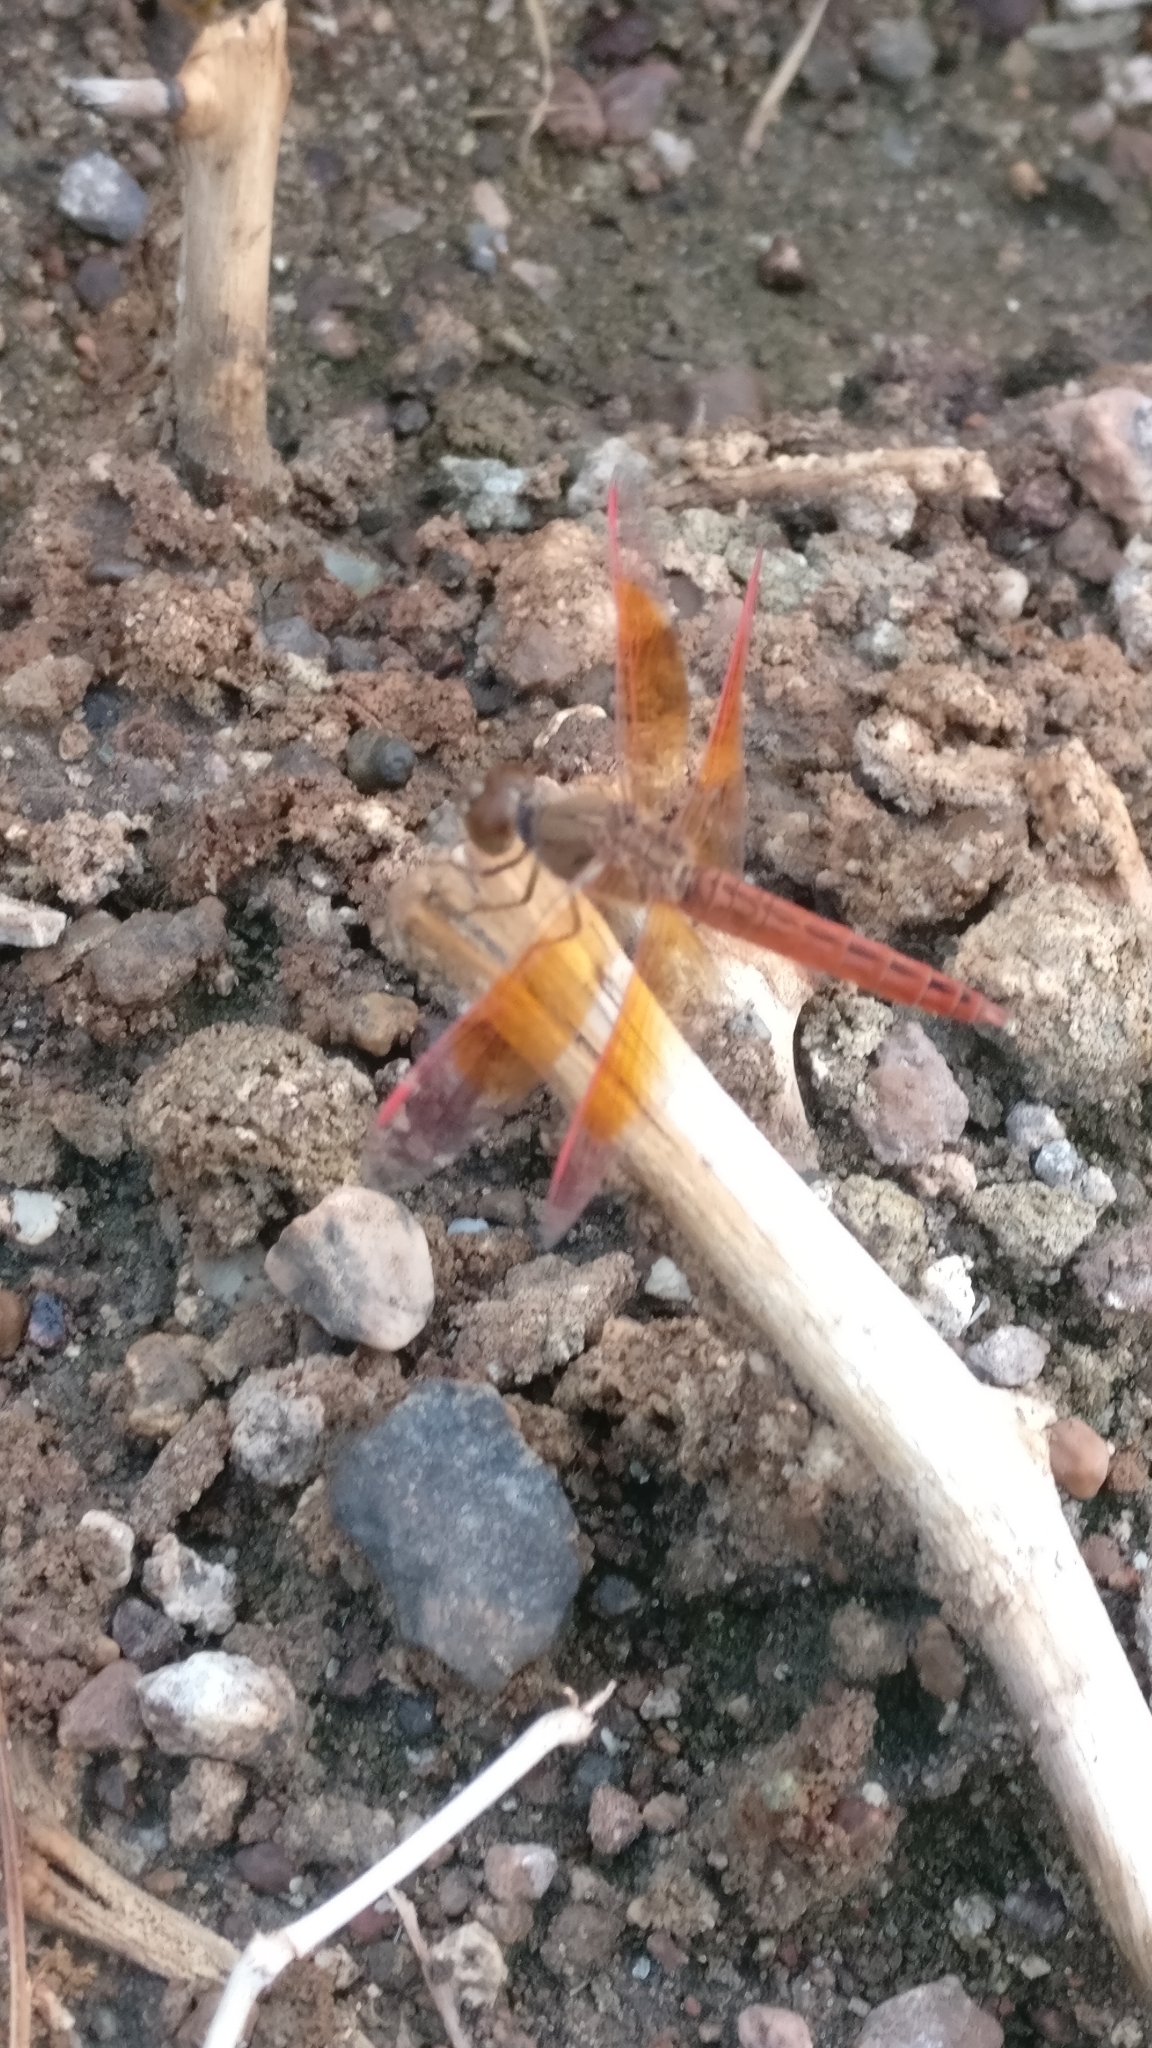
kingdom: Animalia
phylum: Arthropoda
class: Insecta
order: Odonata
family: Libellulidae
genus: Brachythemis
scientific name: Brachythemis contaminata
